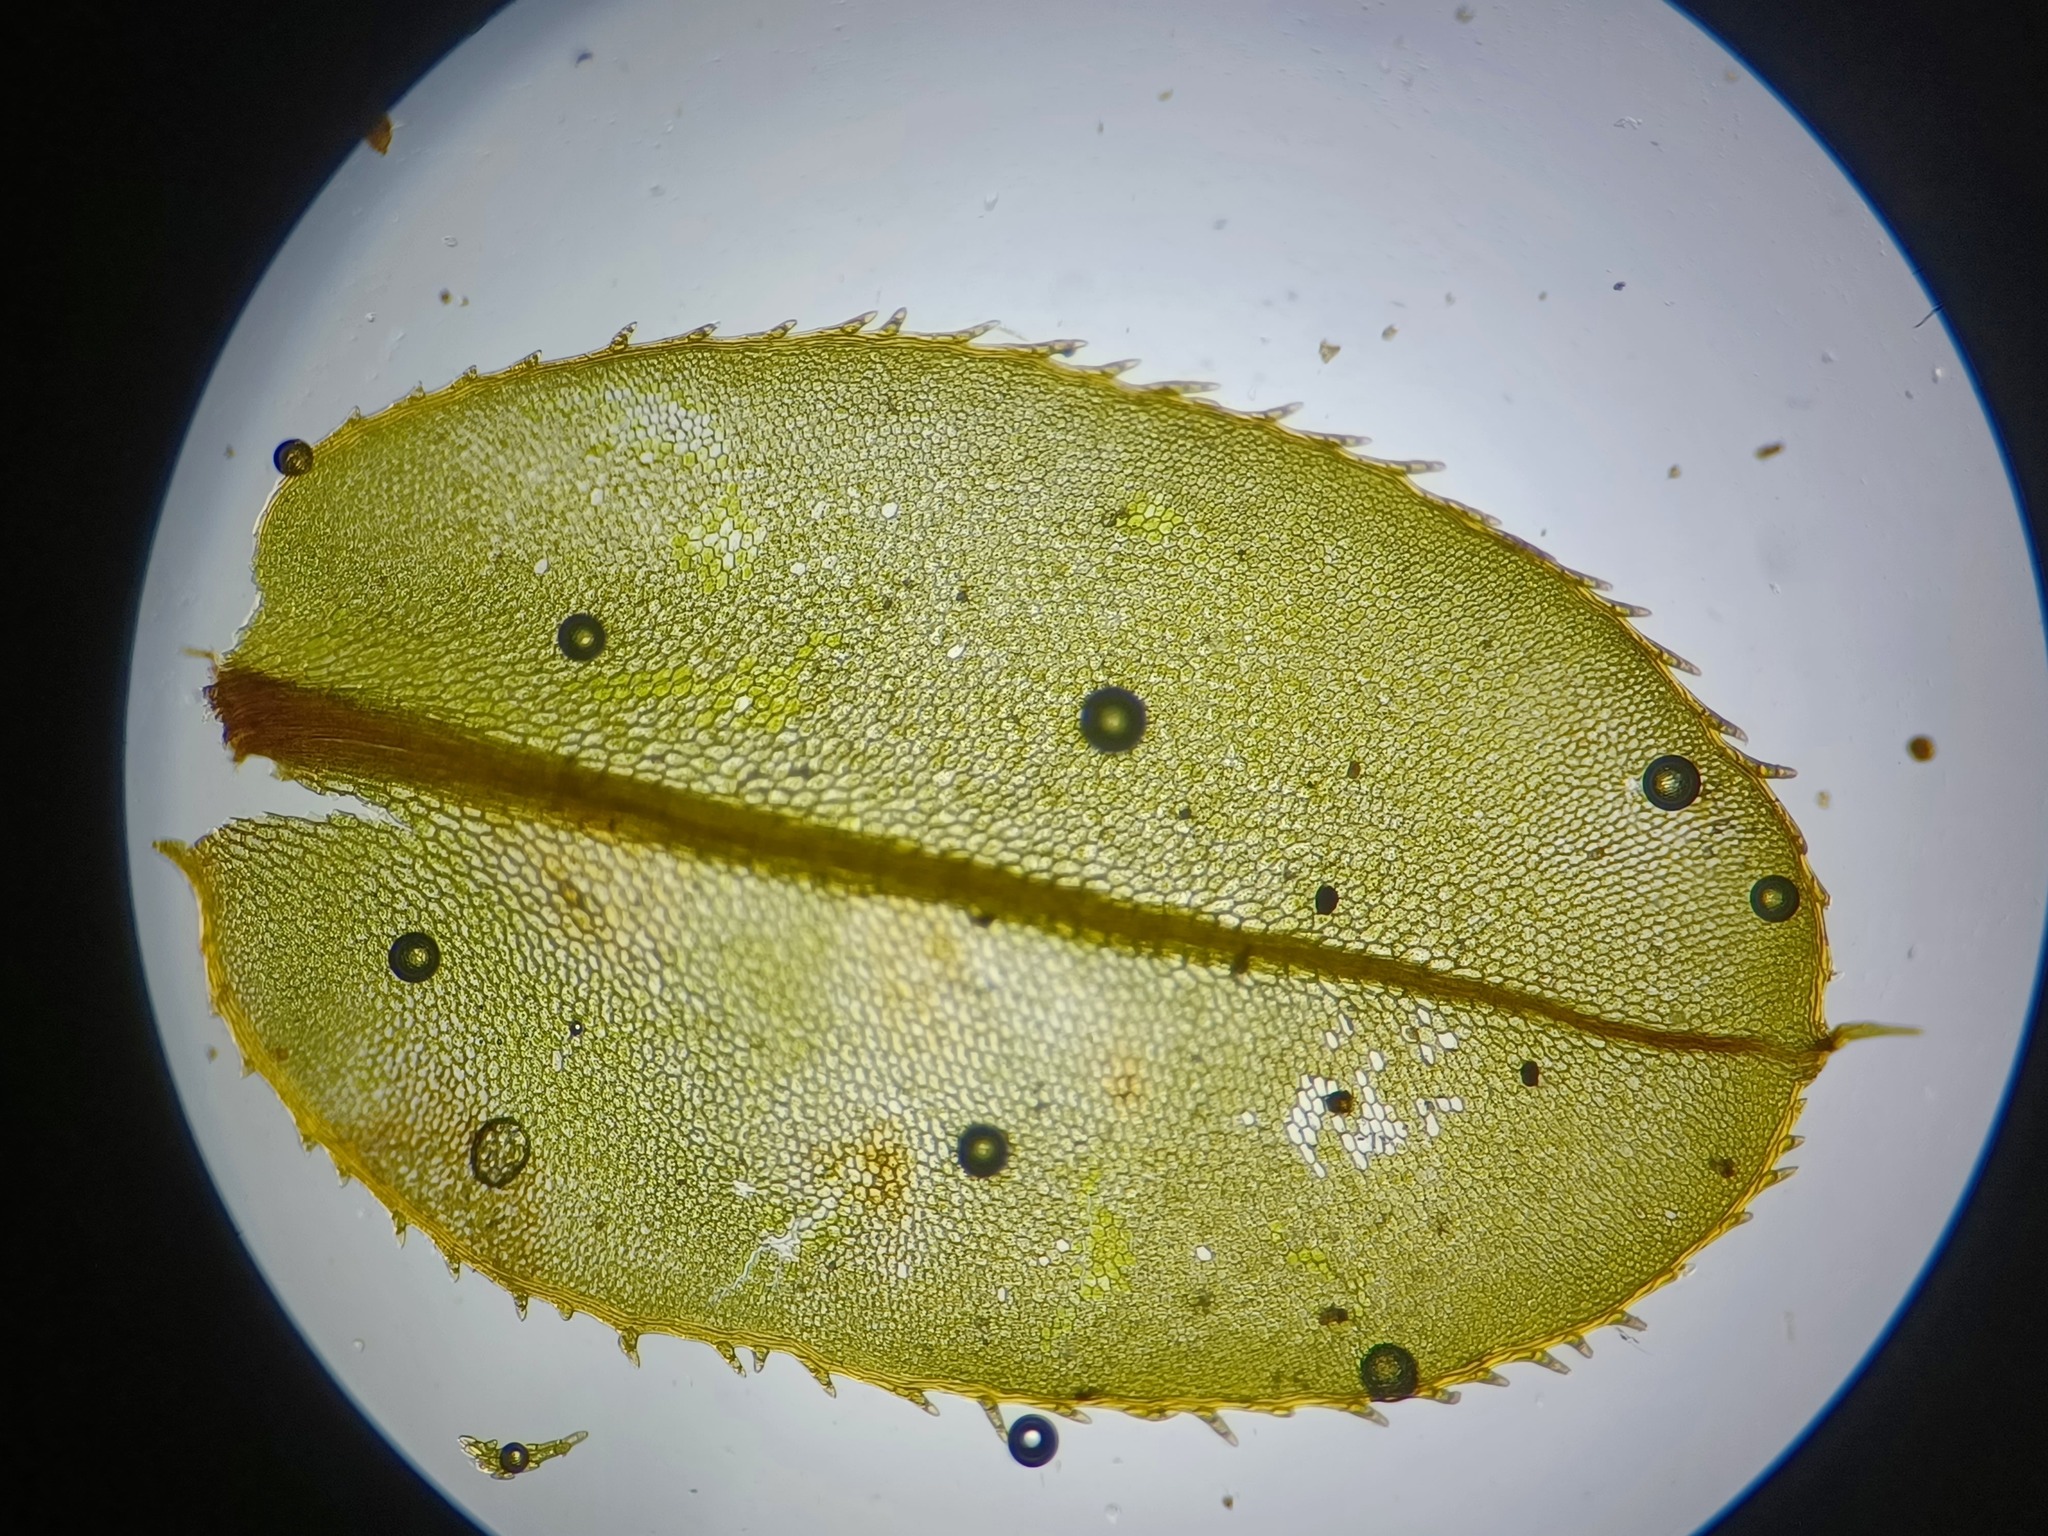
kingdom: Plantae
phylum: Bryophyta
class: Bryopsida
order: Bryales
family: Mniaceae
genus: Plagiomnium
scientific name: Plagiomnium ciliare
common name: Toothed leafy moss
